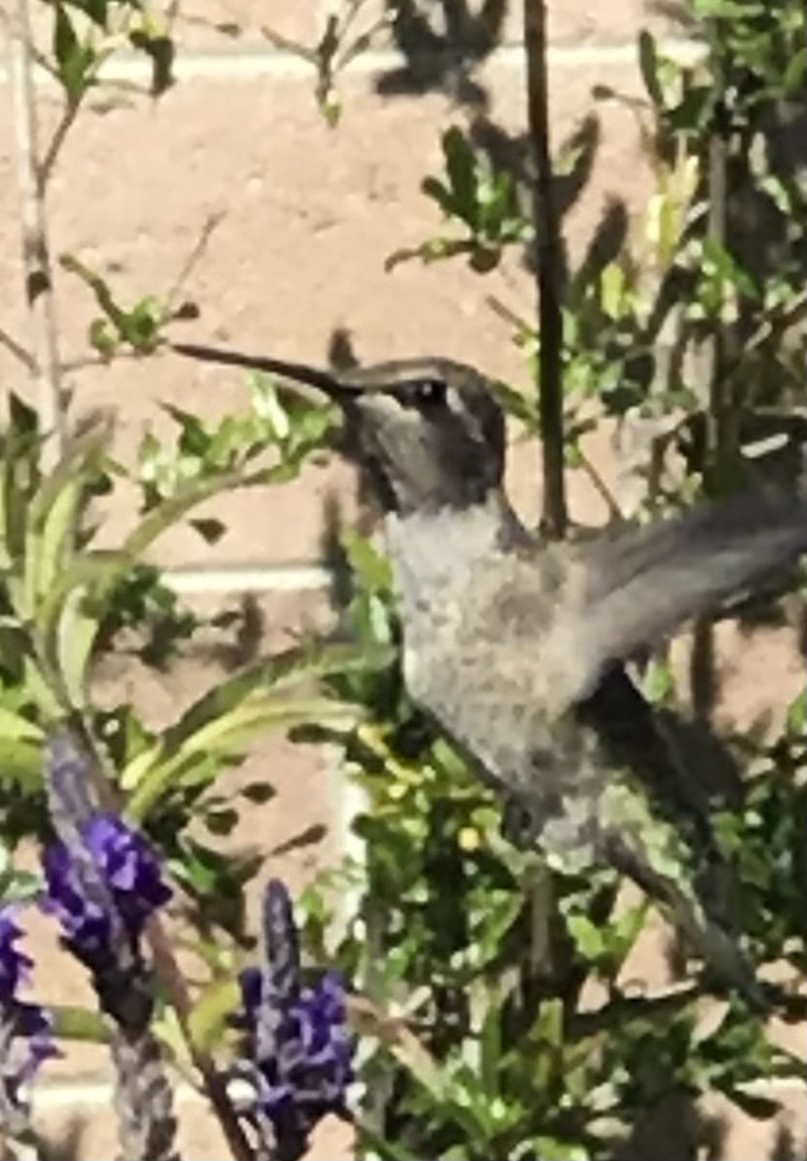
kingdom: Animalia
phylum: Chordata
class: Aves
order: Apodiformes
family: Trochilidae
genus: Calypte
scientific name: Calypte anna
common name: Anna's hummingbird
